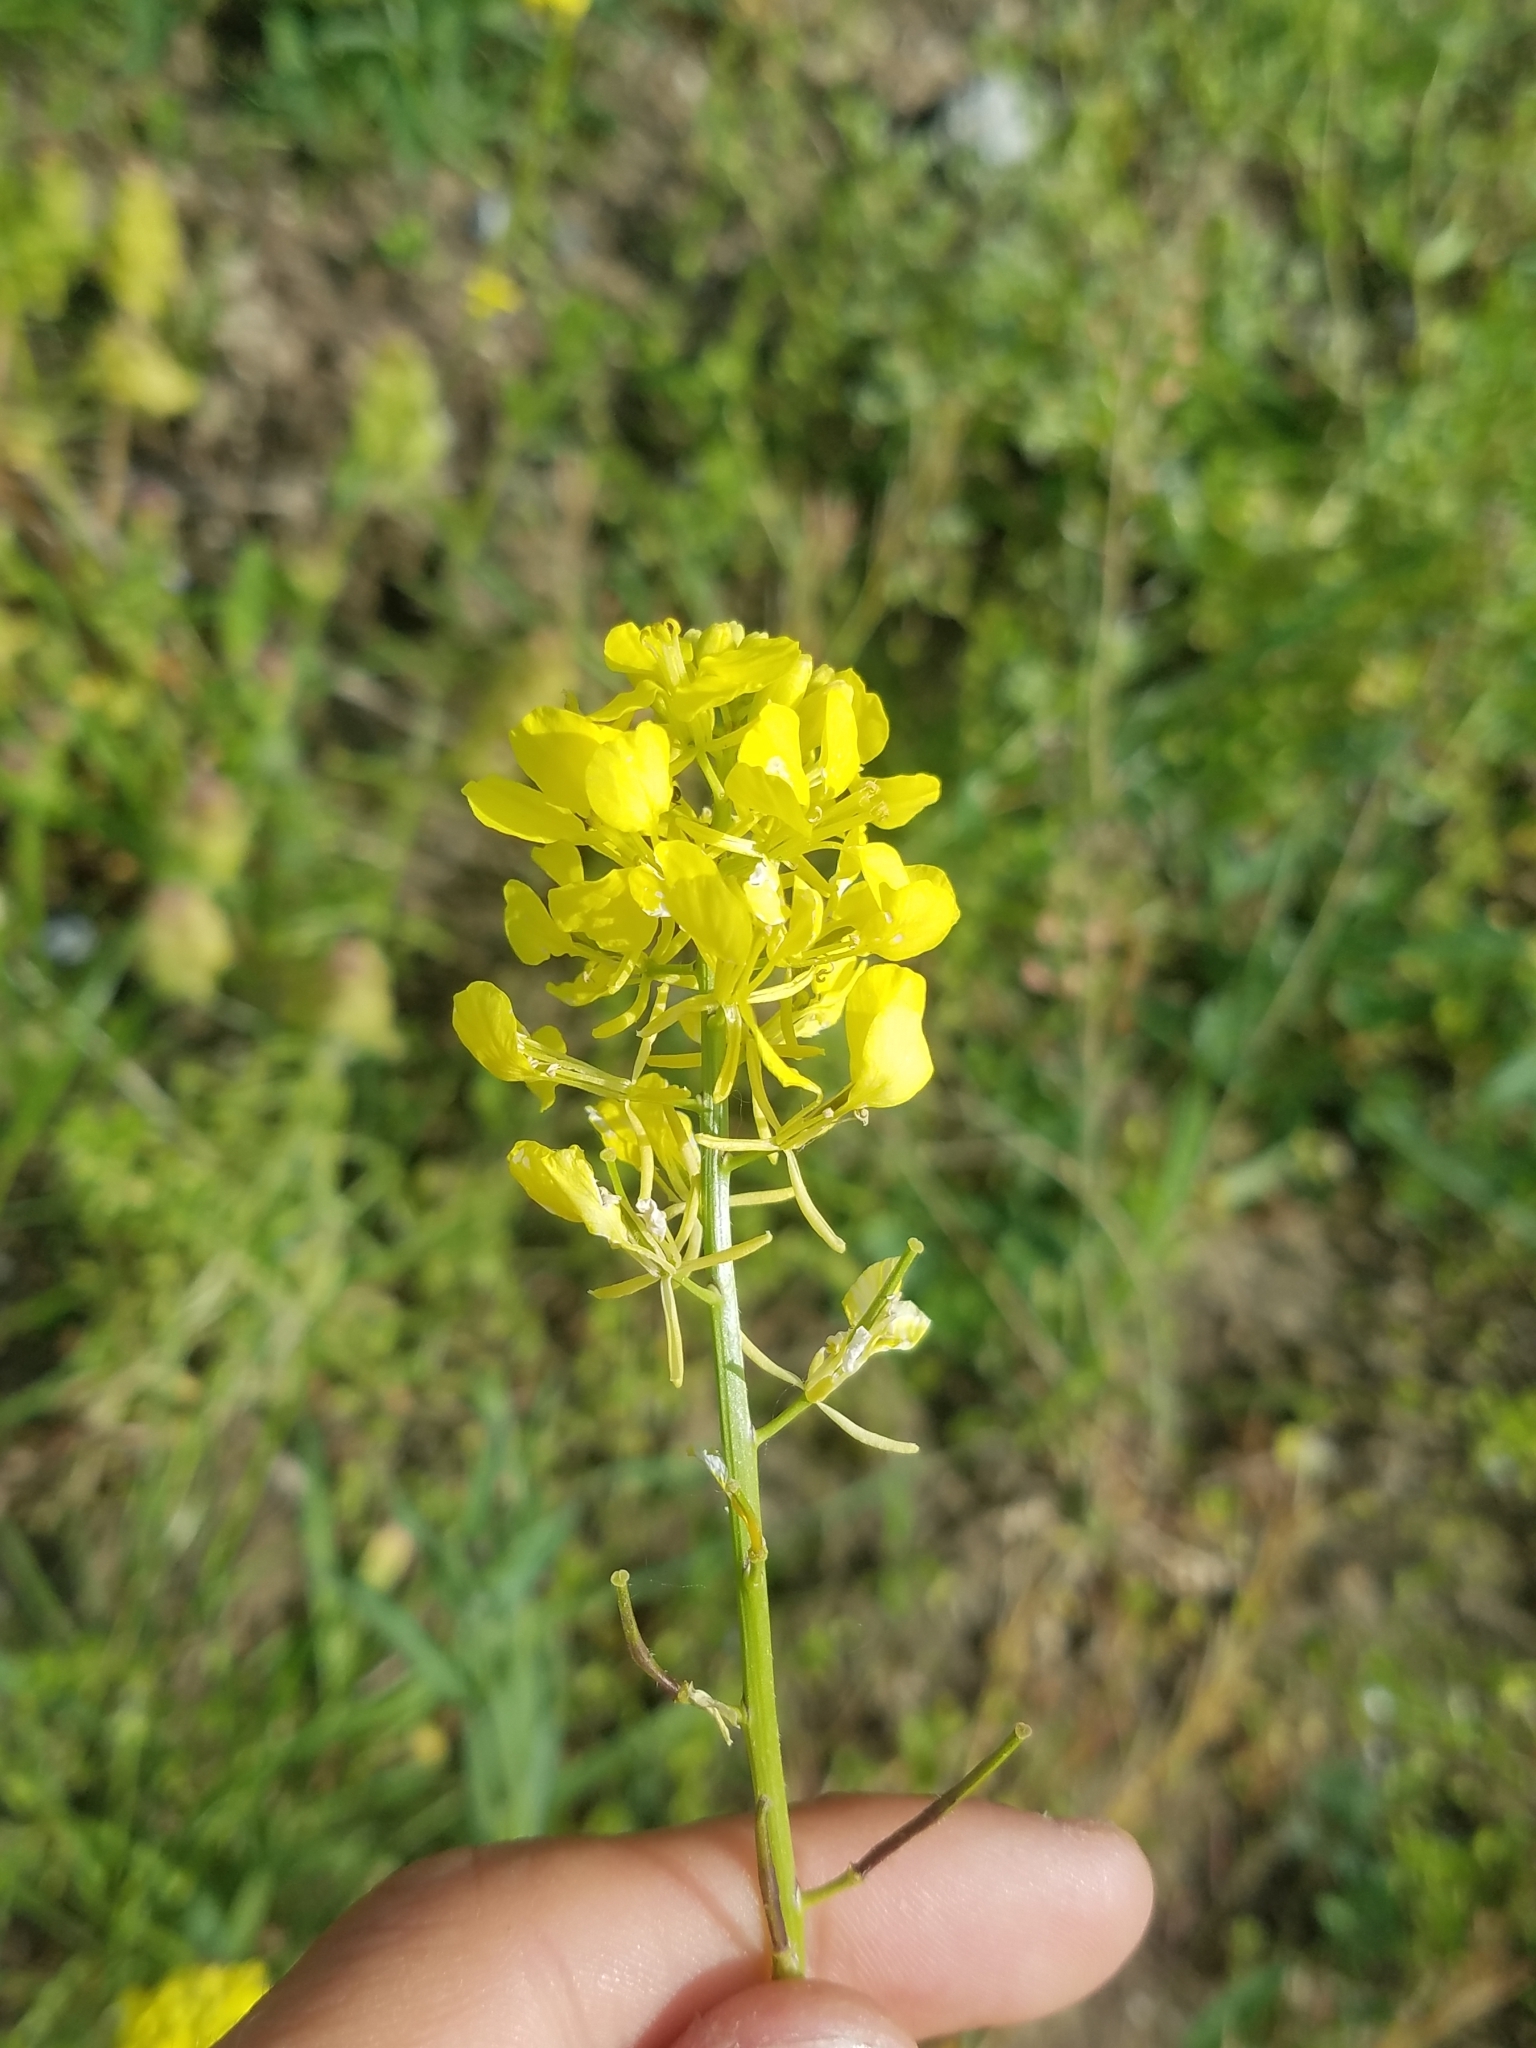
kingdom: Plantae
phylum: Tracheophyta
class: Magnoliopsida
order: Brassicales
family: Brassicaceae
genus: Sinapis
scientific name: Sinapis arvensis
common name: Charlock
